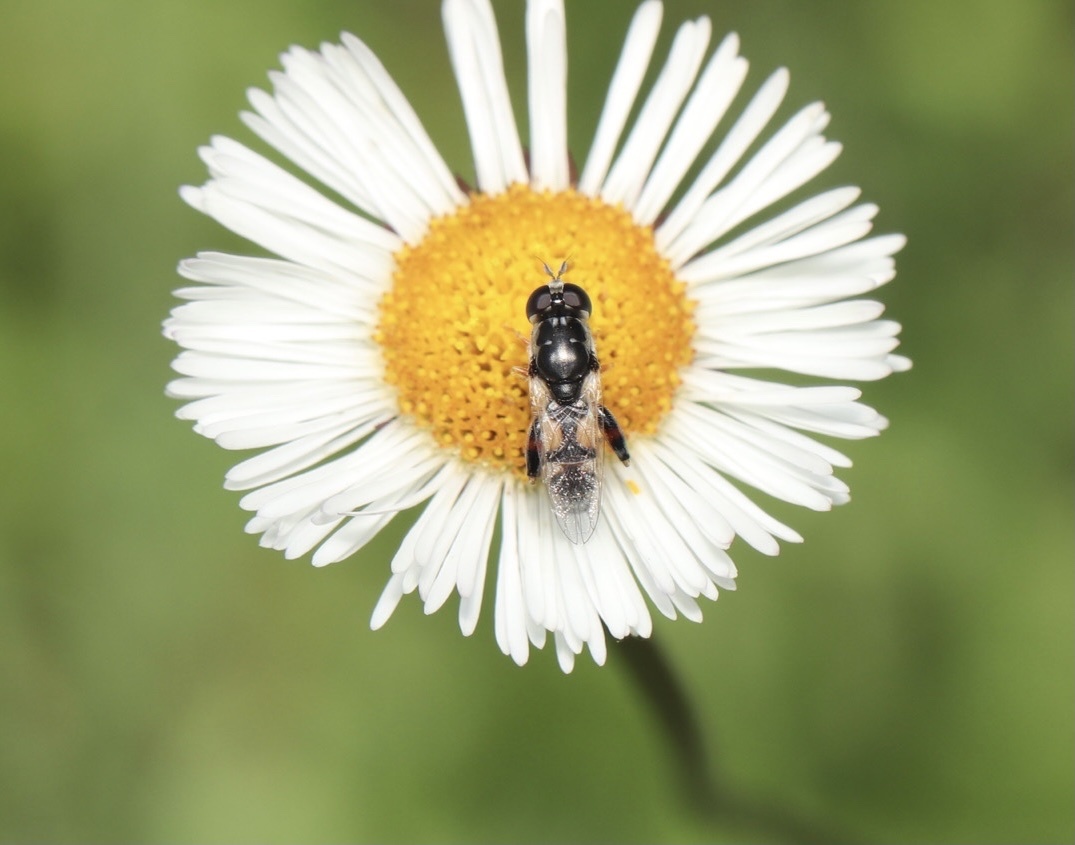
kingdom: Animalia
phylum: Arthropoda
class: Insecta
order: Diptera
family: Syrphidae
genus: Syritta
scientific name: Syritta flaviventris
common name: Syrphid fly
